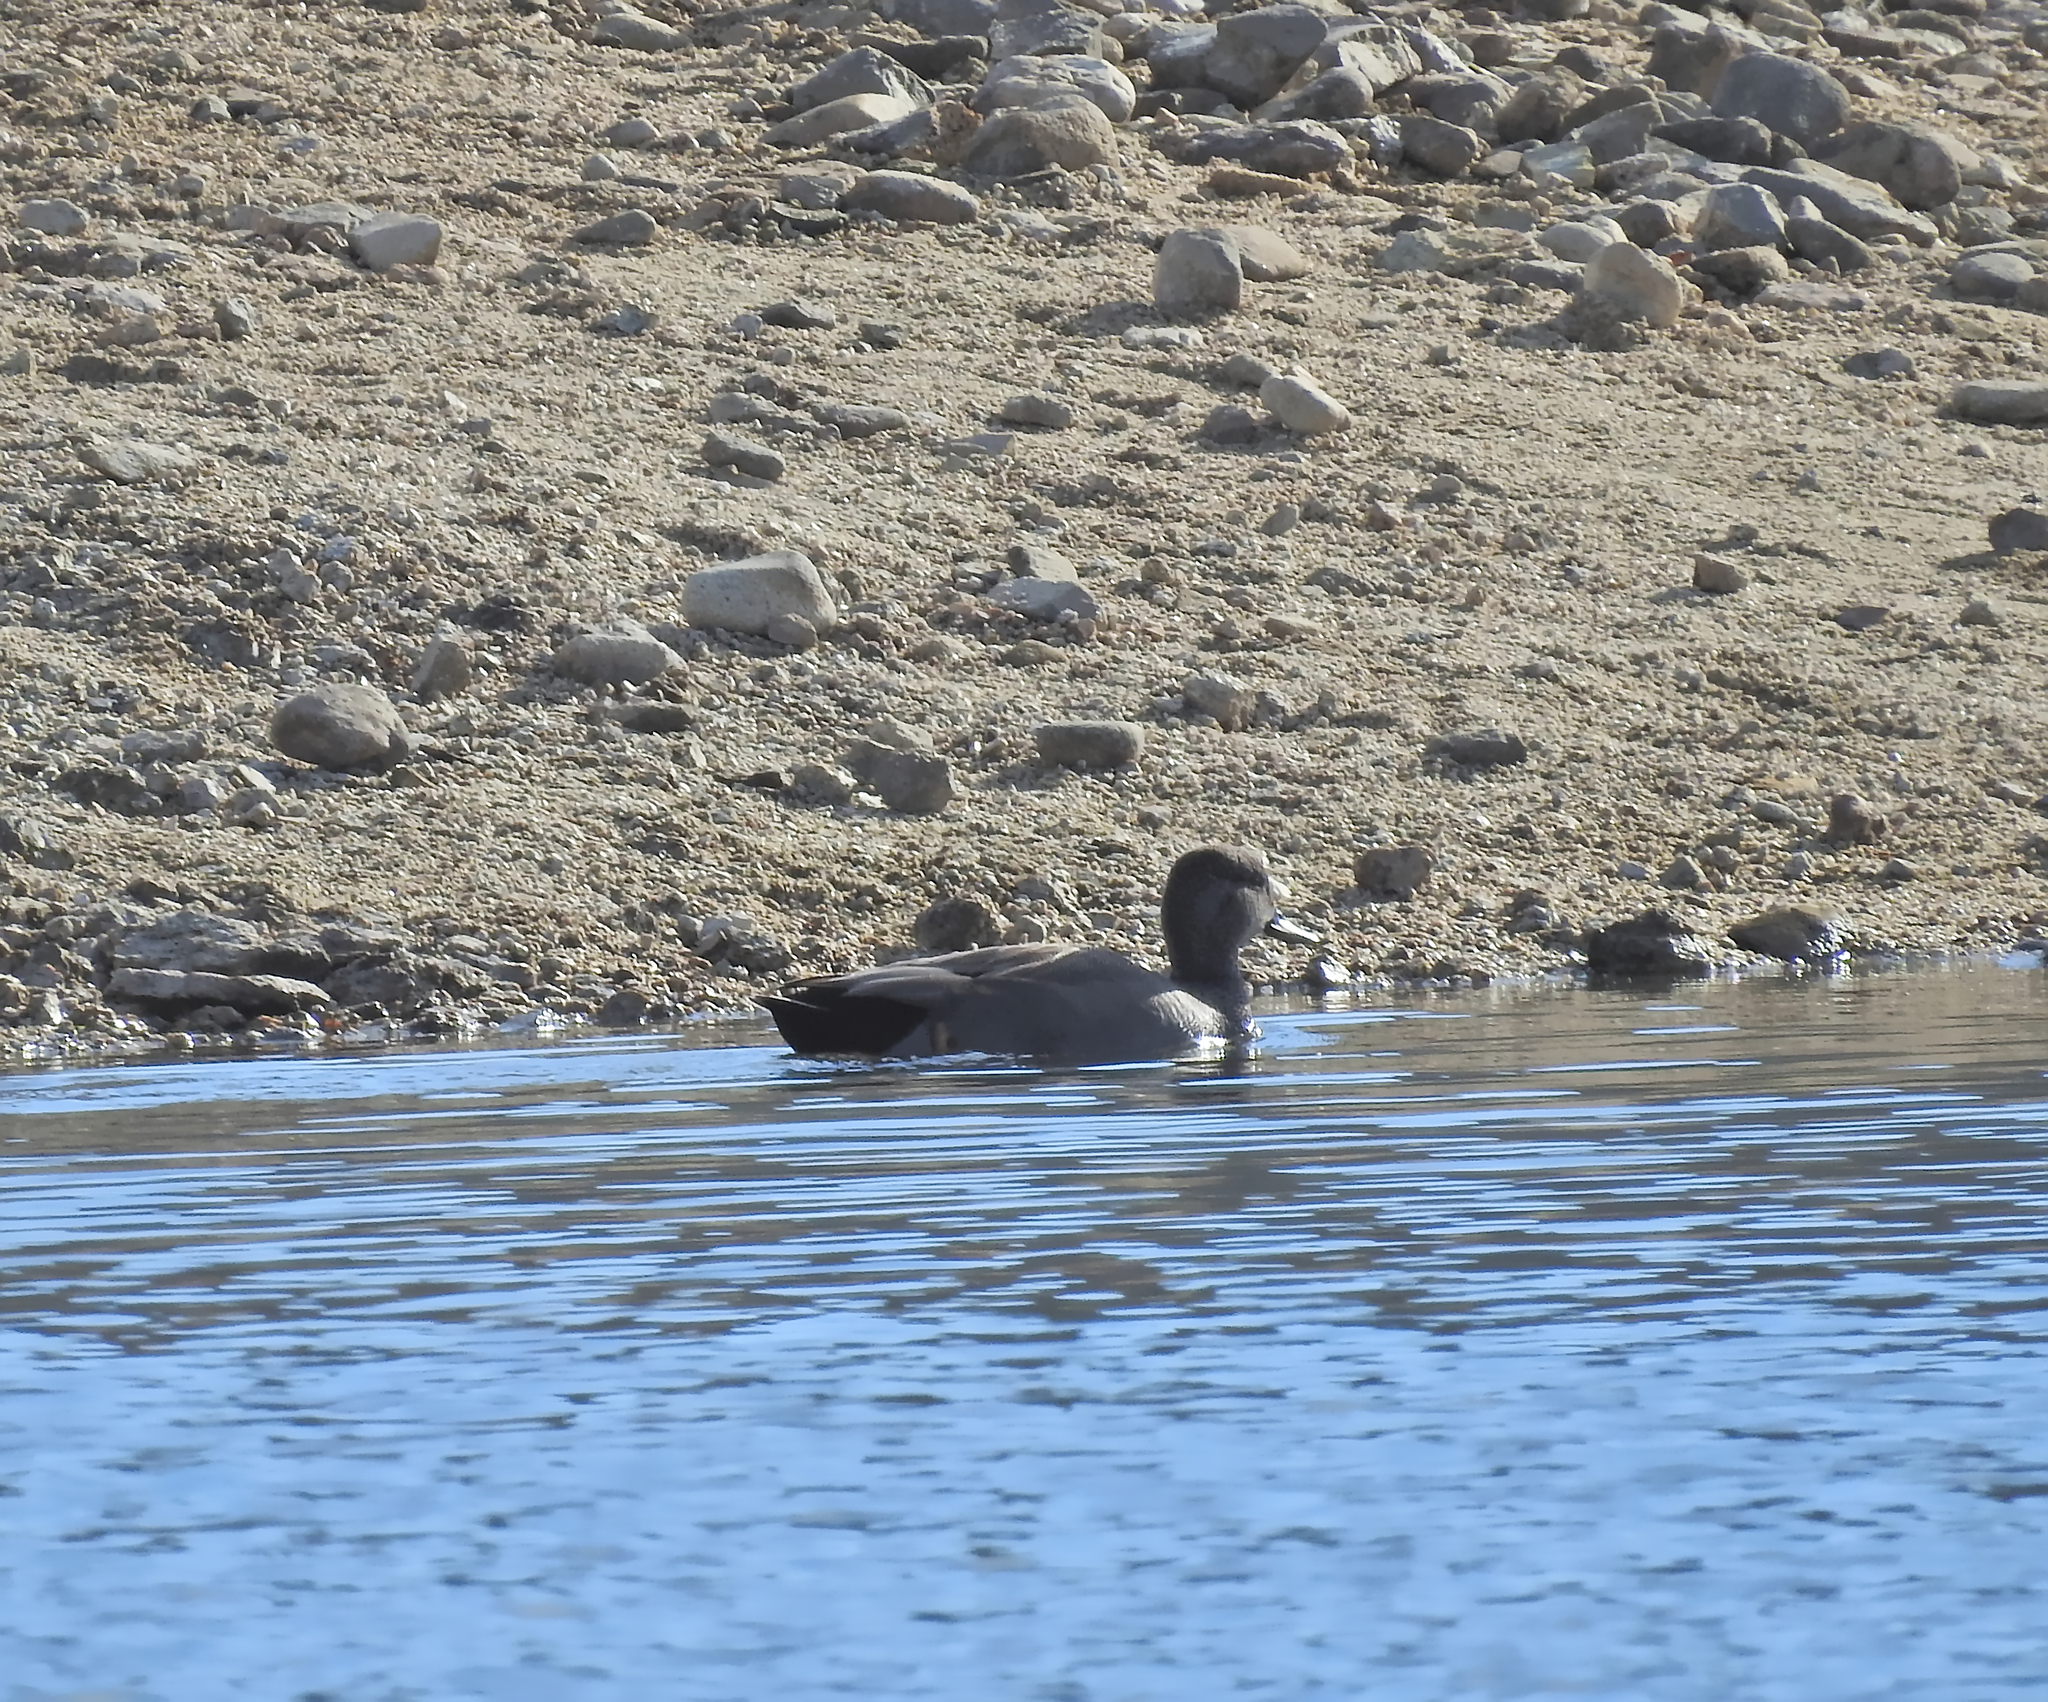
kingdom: Animalia
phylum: Chordata
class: Aves
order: Anseriformes
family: Anatidae
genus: Mareca
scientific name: Mareca strepera
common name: Gadwall
